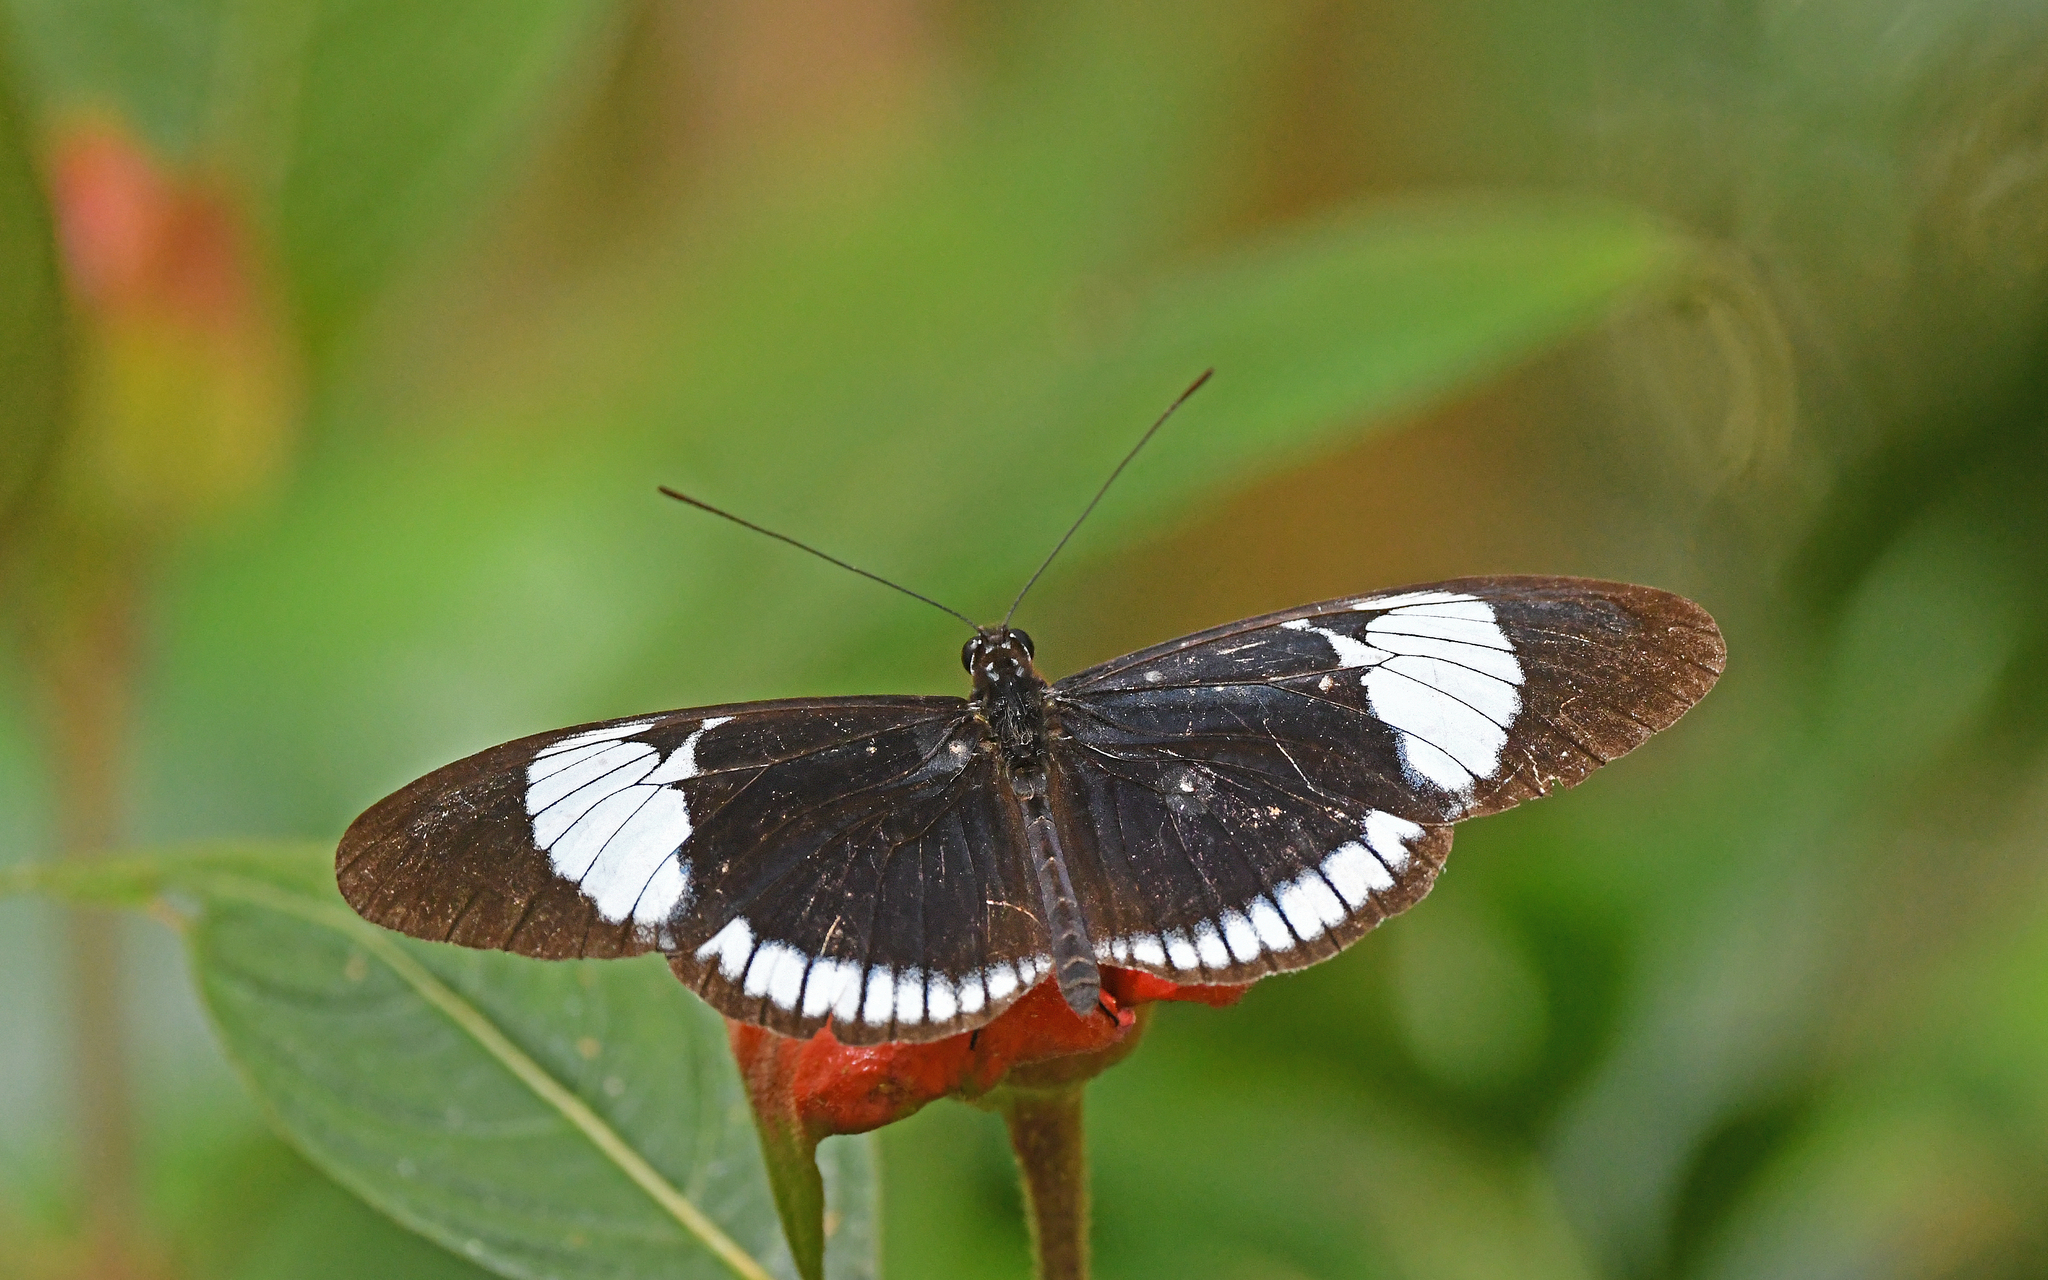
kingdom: Animalia
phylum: Arthropoda
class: Insecta
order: Lepidoptera
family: Nymphalidae
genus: Heliconius
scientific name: Heliconius cydno
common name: Cydno longwing
